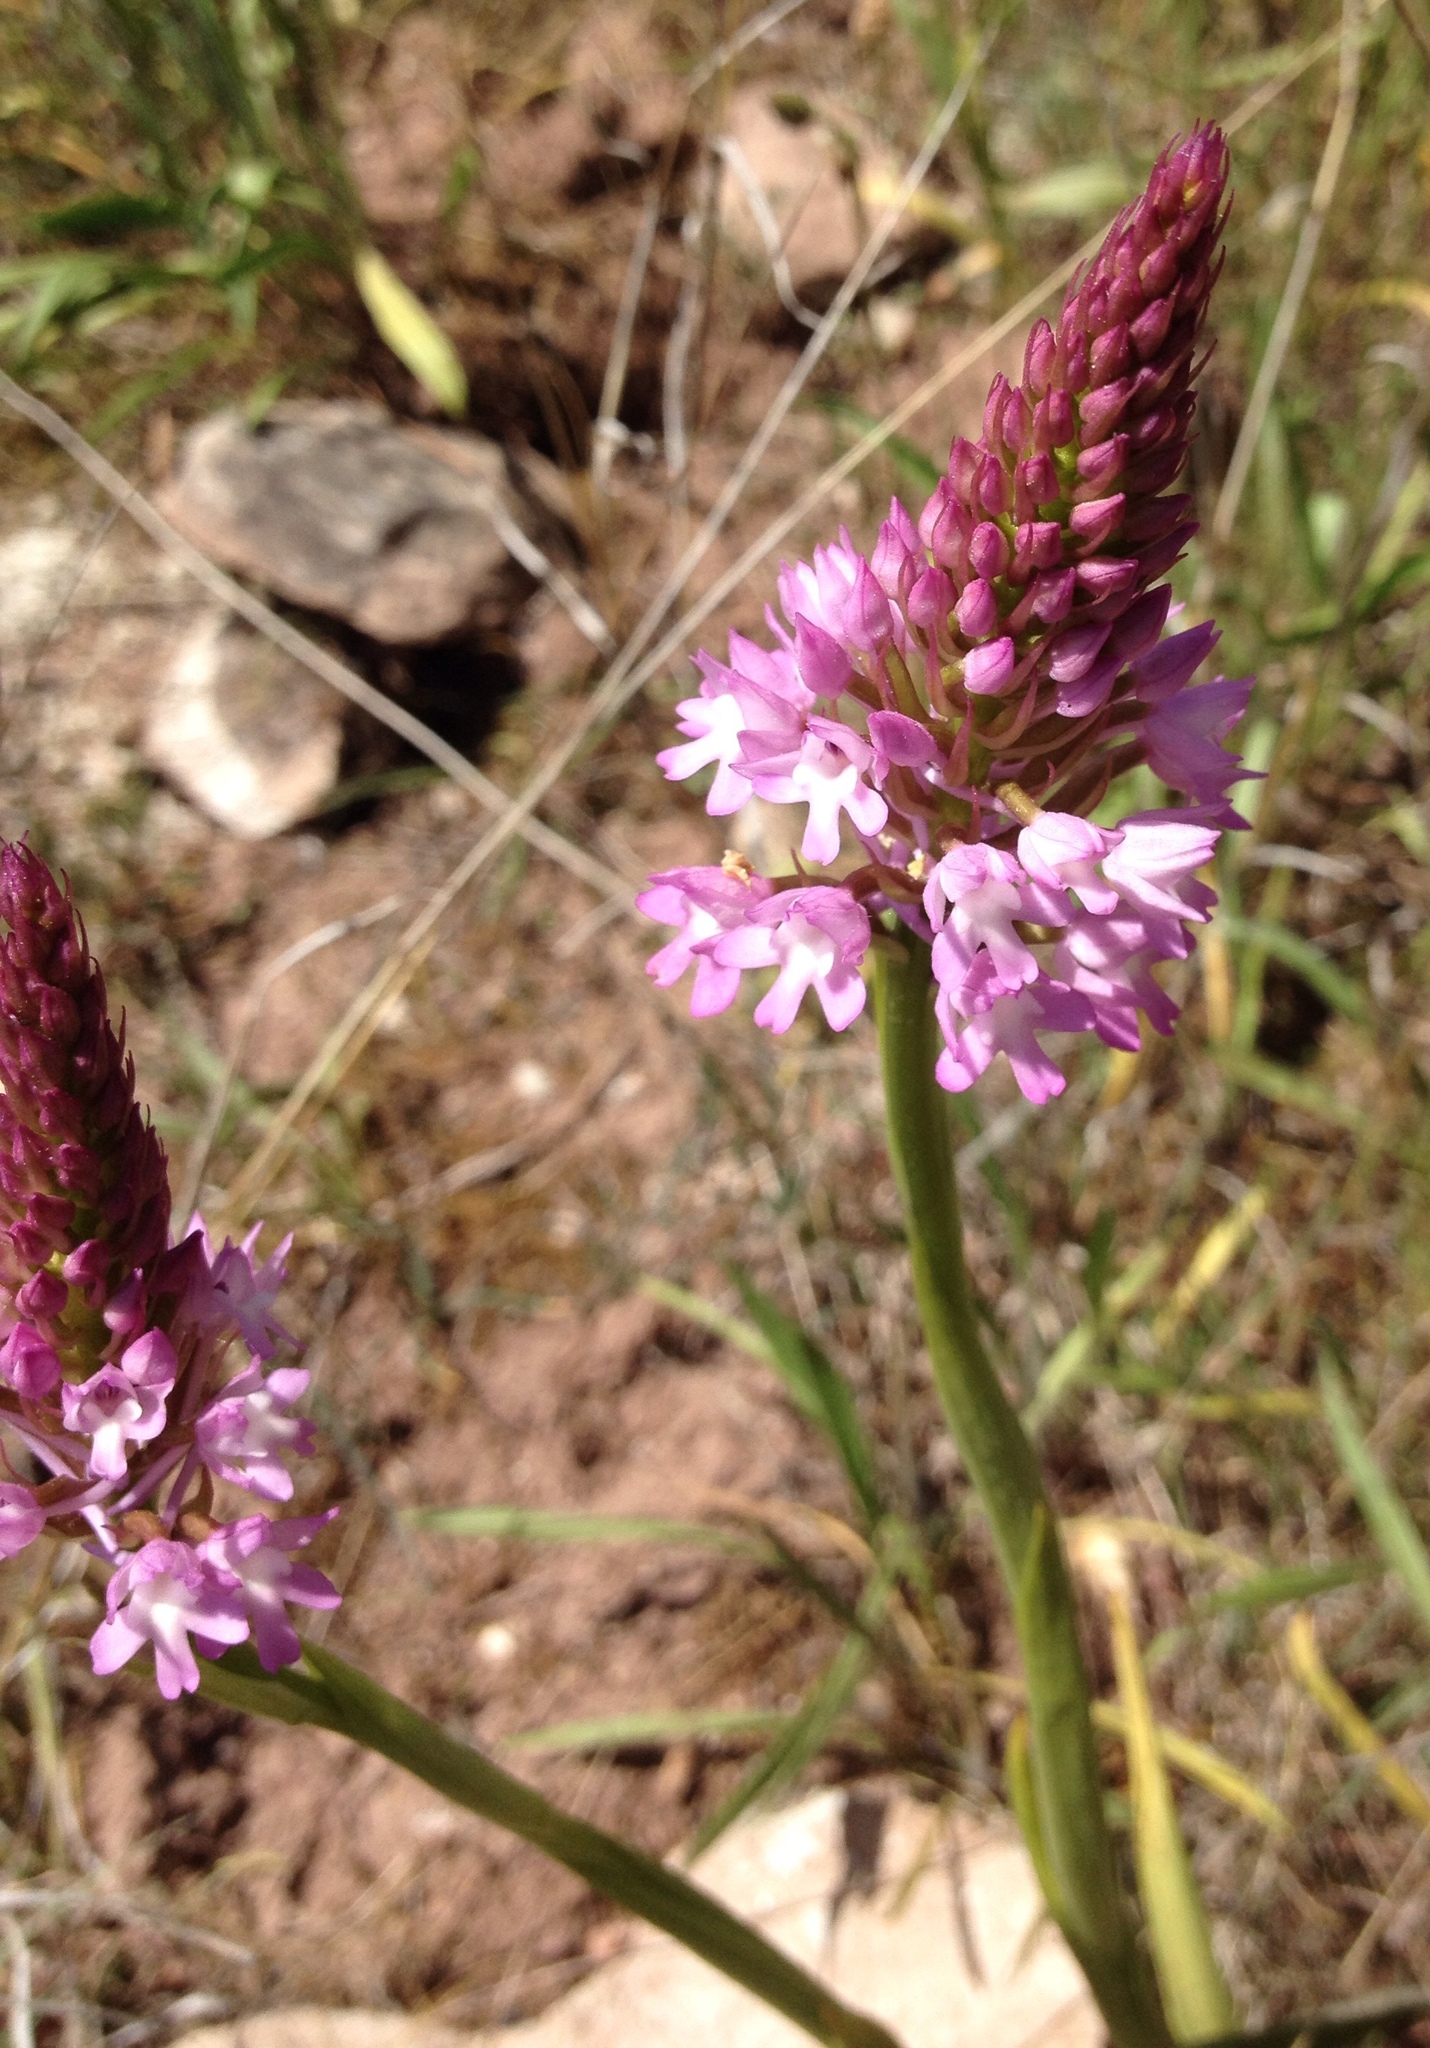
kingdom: Plantae
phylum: Tracheophyta
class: Liliopsida
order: Asparagales
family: Orchidaceae
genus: Anacamptis
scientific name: Anacamptis pyramidalis
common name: Pyramidal orchid
